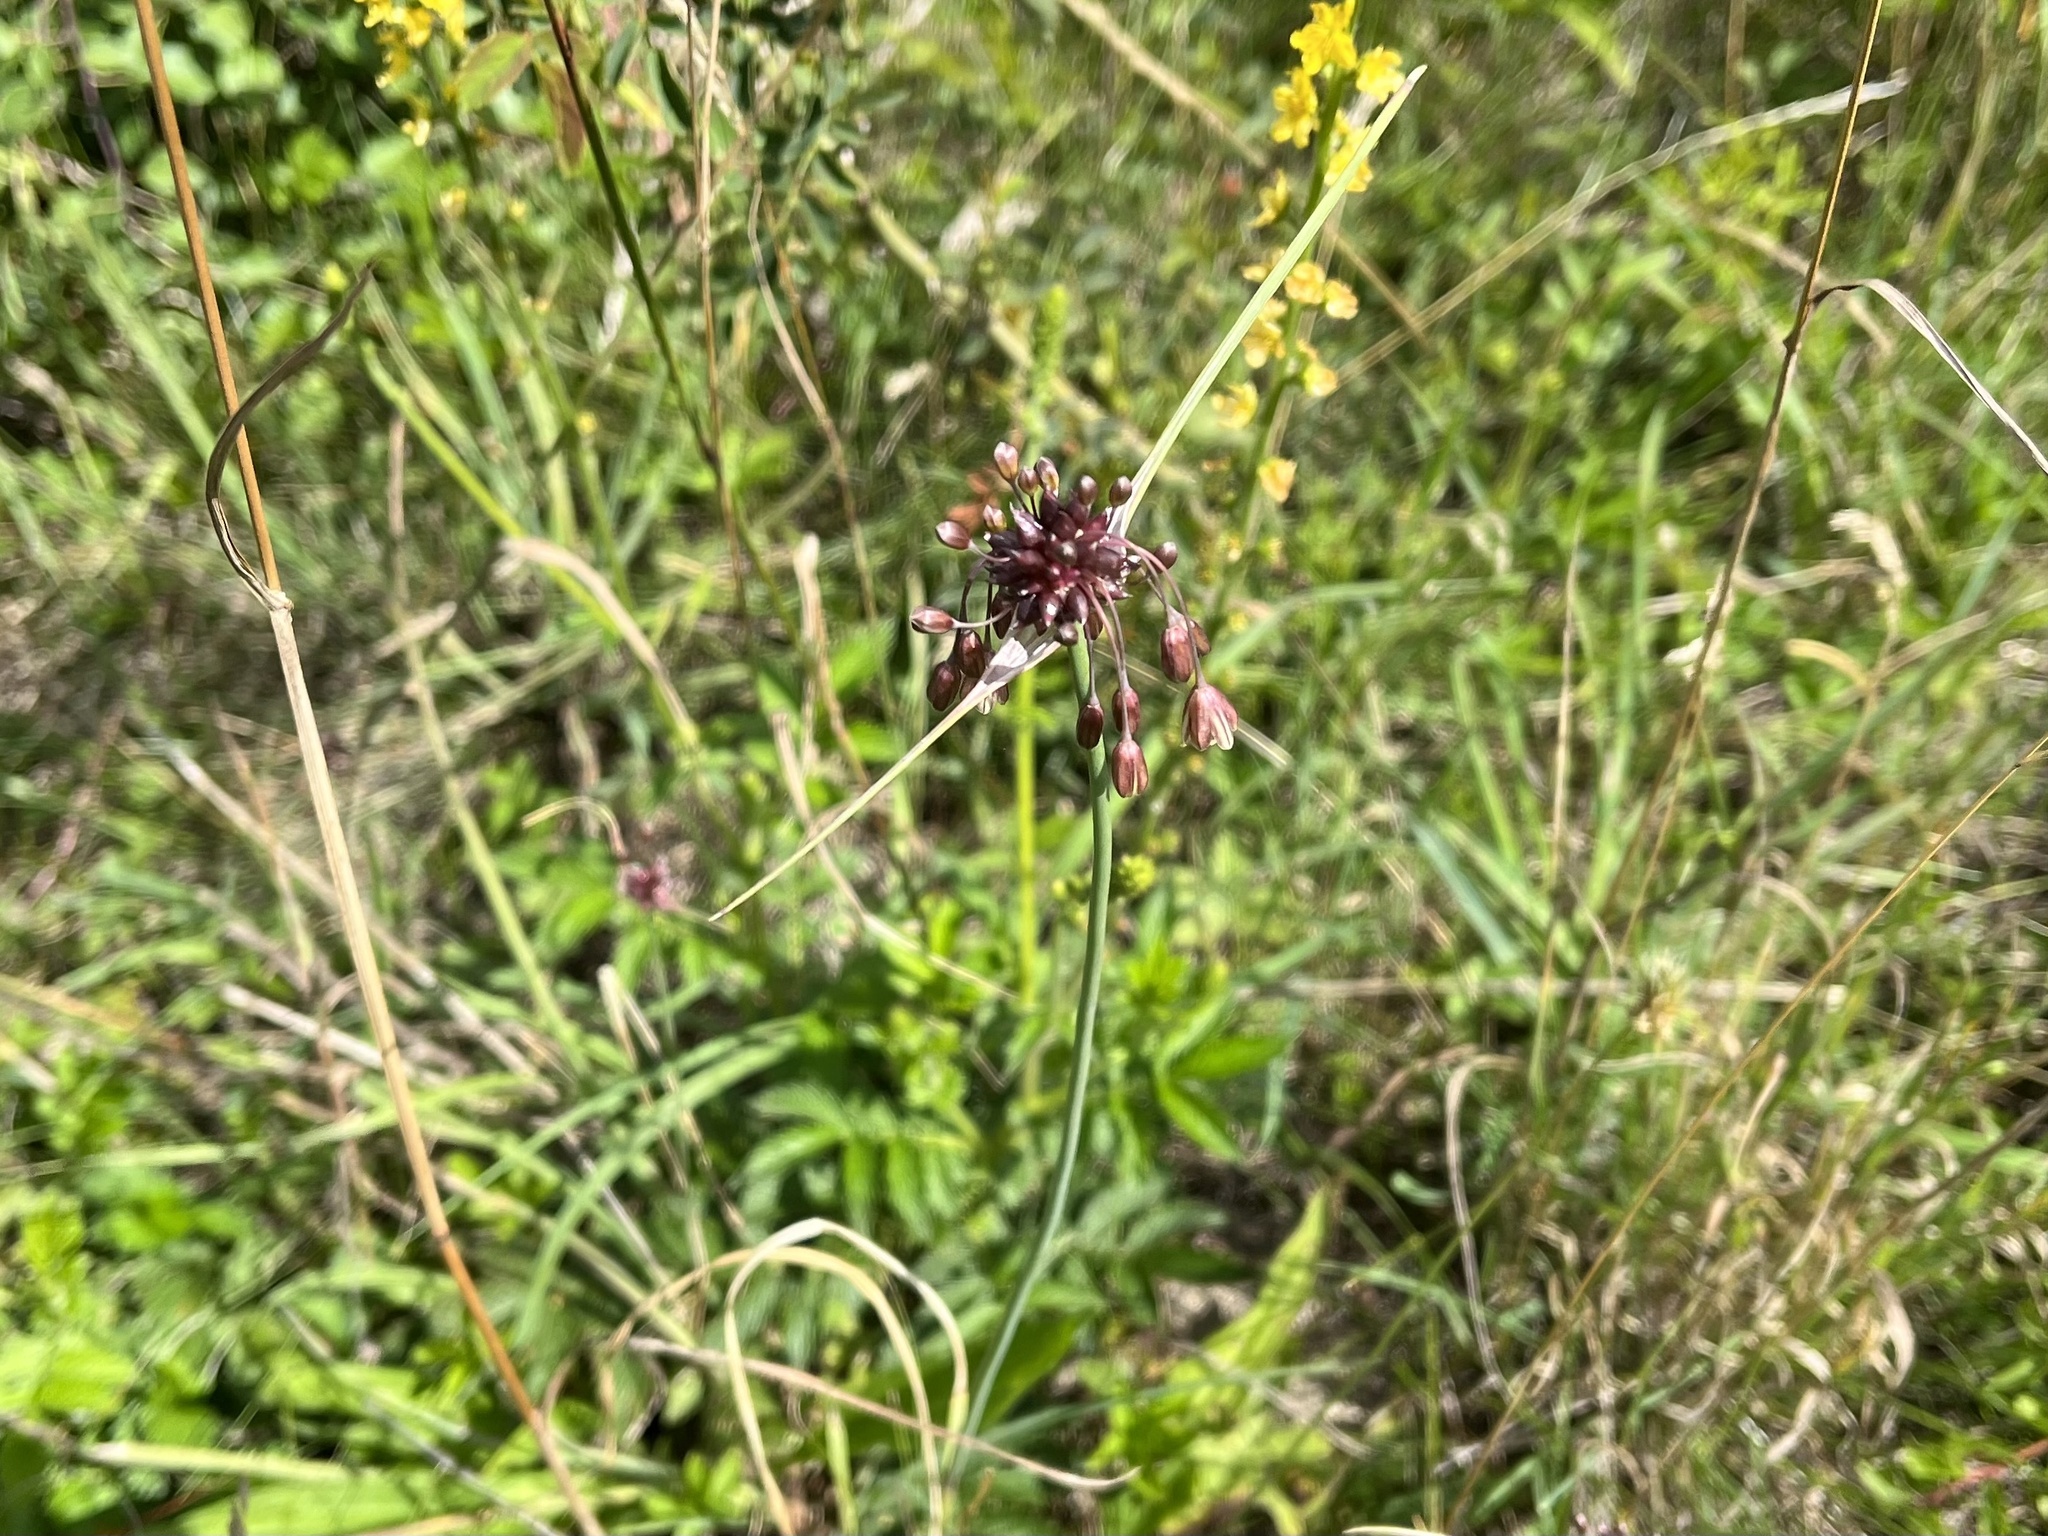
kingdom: Plantae
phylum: Tracheophyta
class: Liliopsida
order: Asparagales
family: Amaryllidaceae
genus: Allium
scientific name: Allium oleraceum
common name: Field garlic
